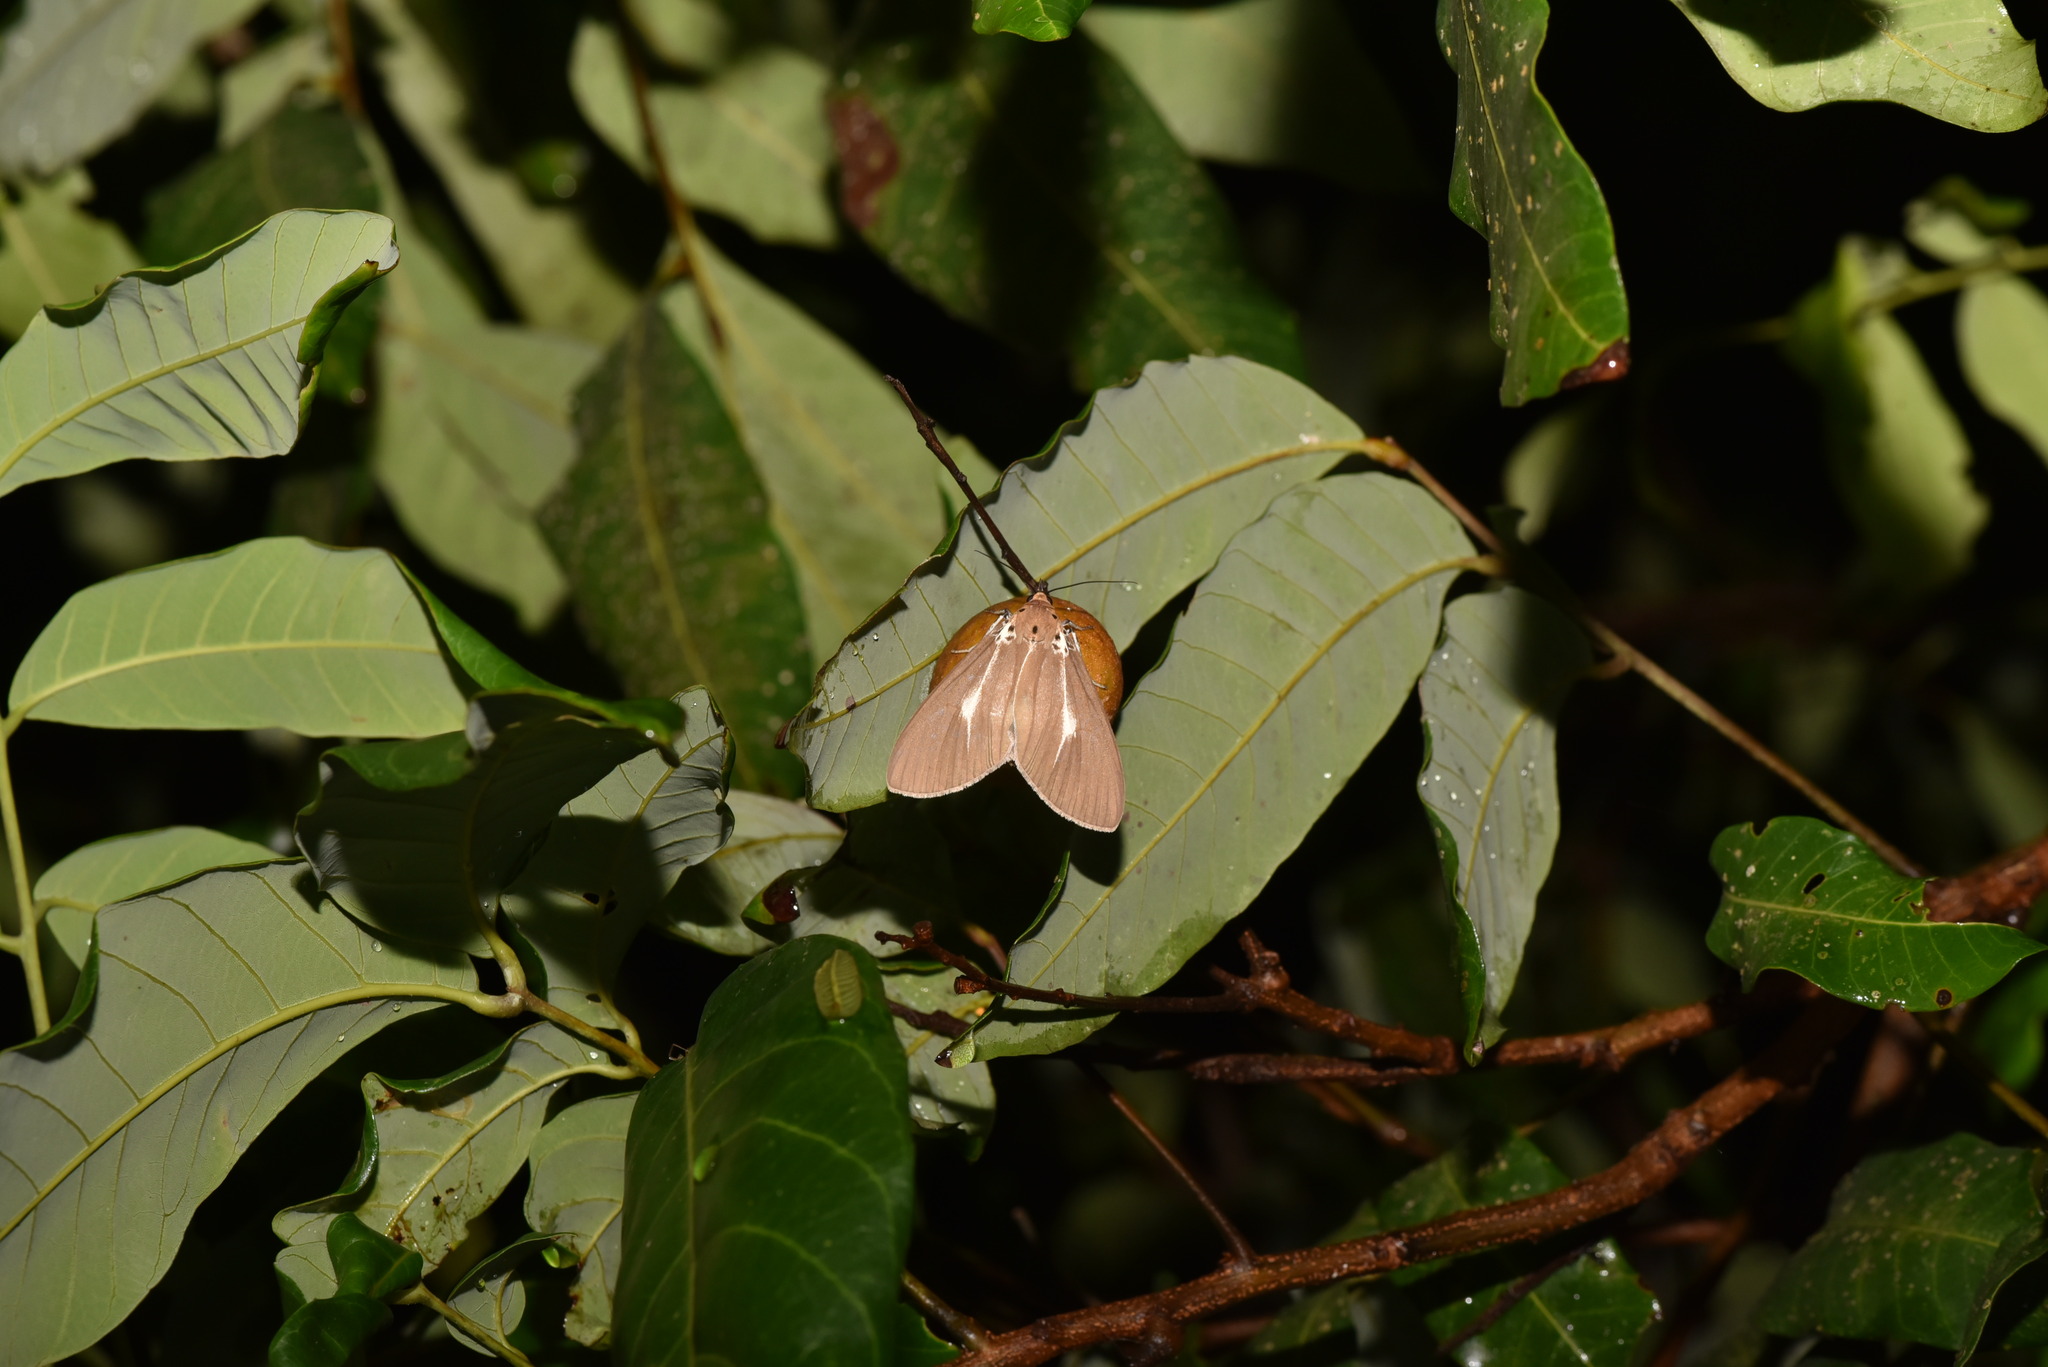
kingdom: Animalia
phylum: Arthropoda
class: Insecta
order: Lepidoptera
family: Erebidae
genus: Asota
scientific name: Asota heliconia
